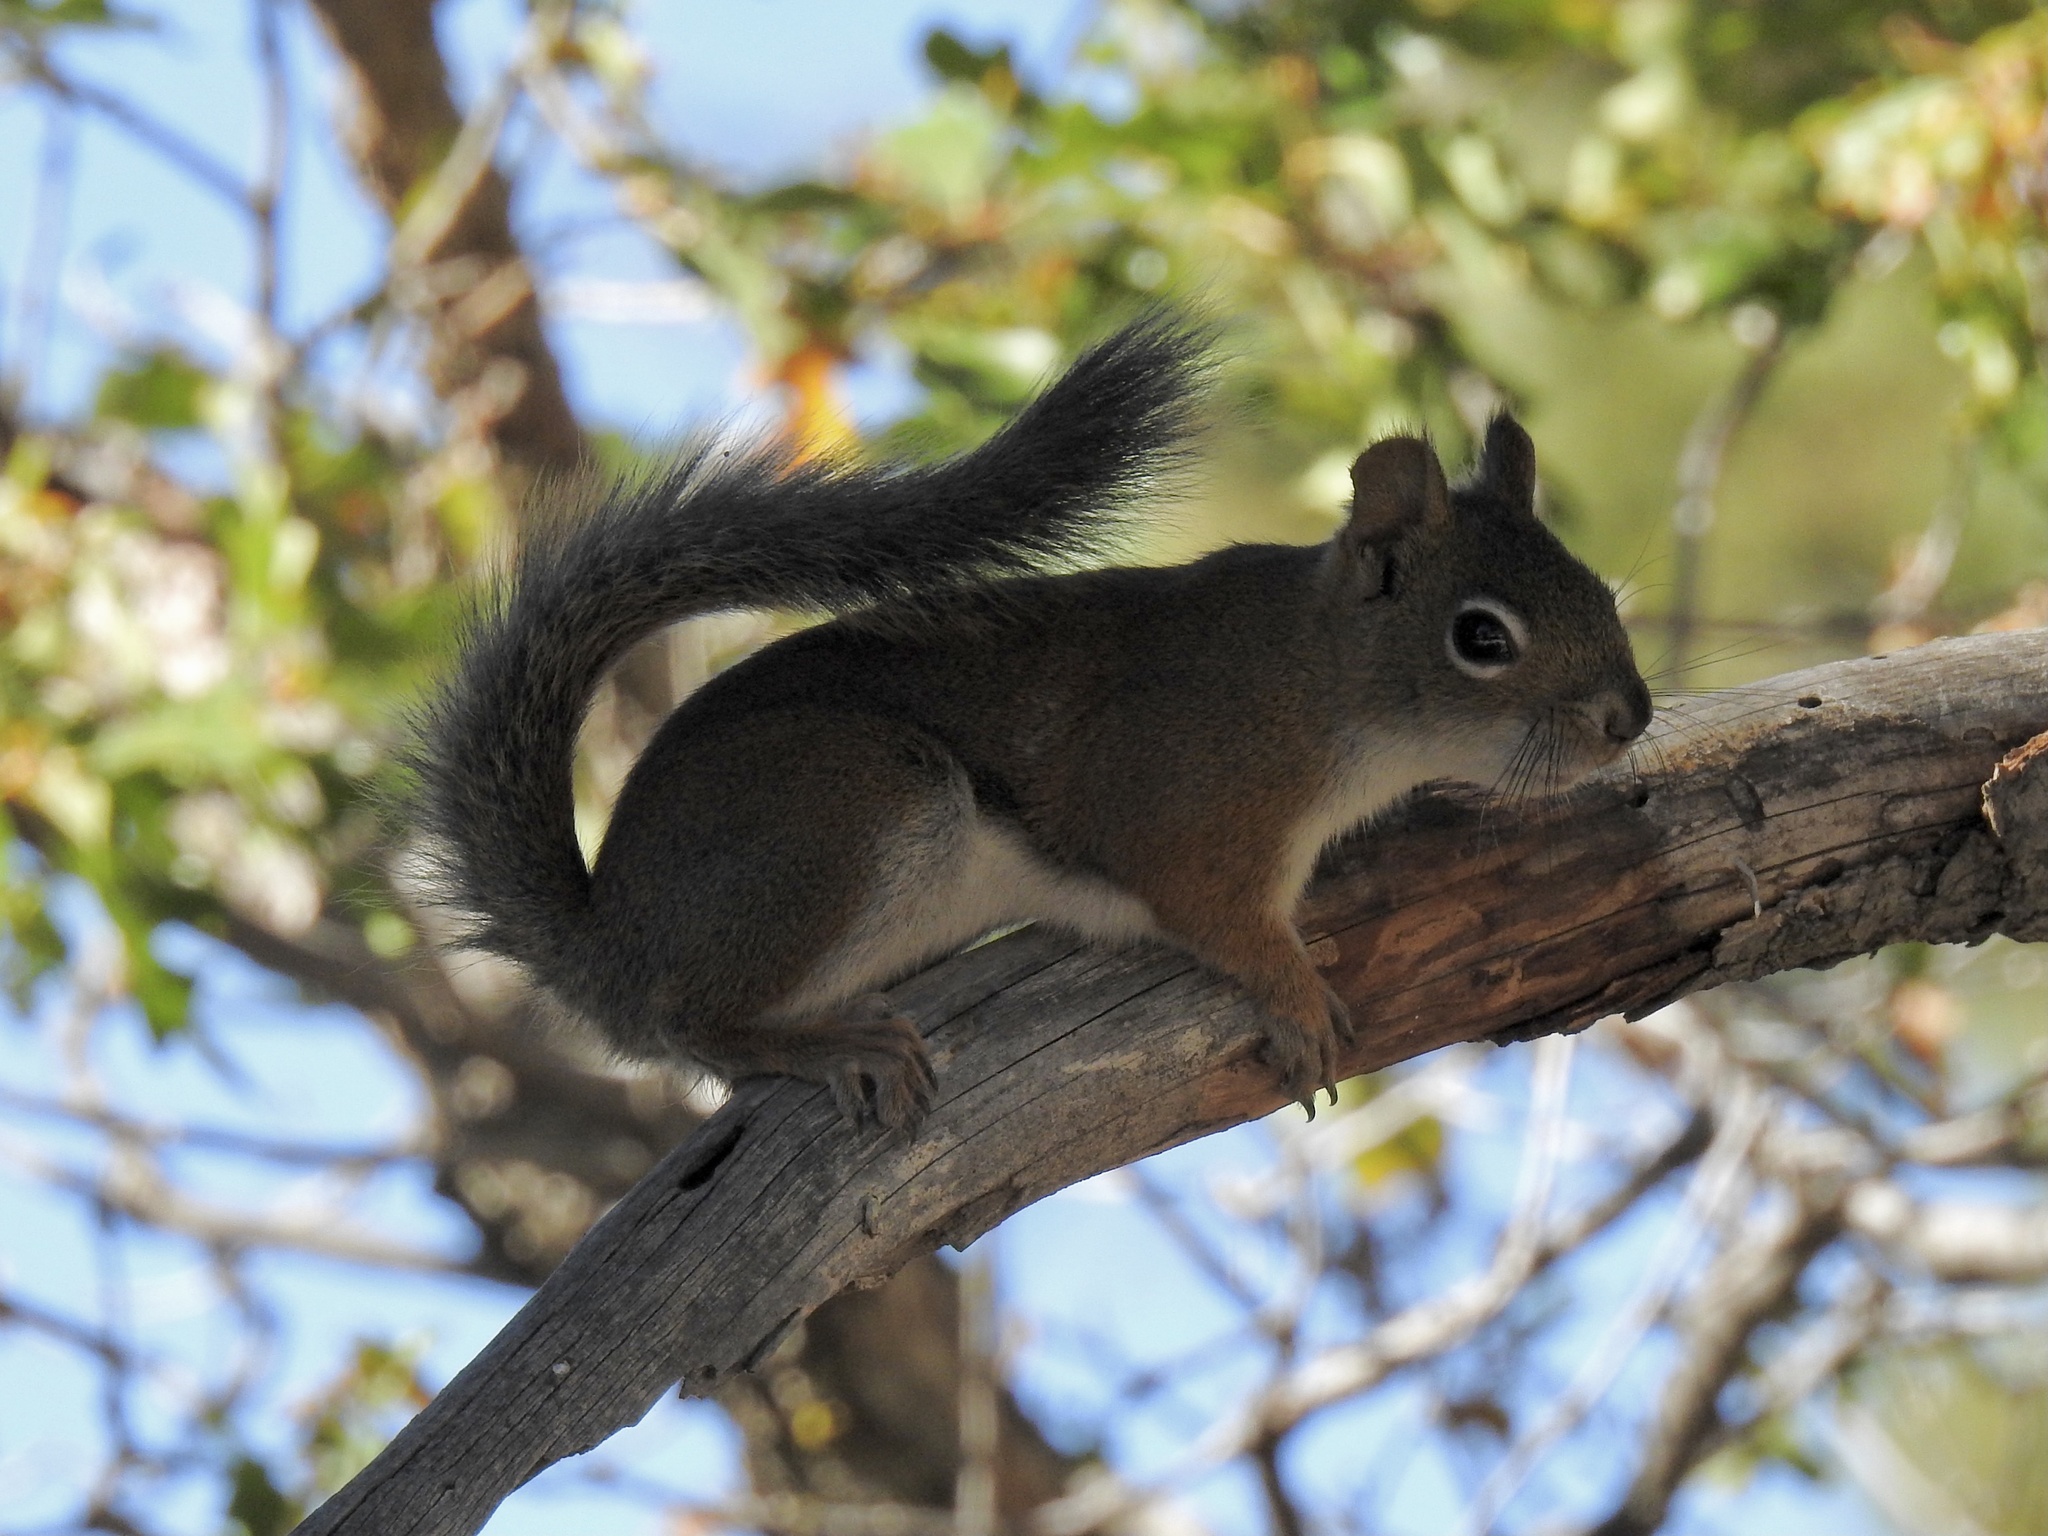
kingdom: Animalia
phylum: Chordata
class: Mammalia
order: Rodentia
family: Sciuridae
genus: Tamiasciurus
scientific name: Tamiasciurus hudsonicus
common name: Red squirrel
